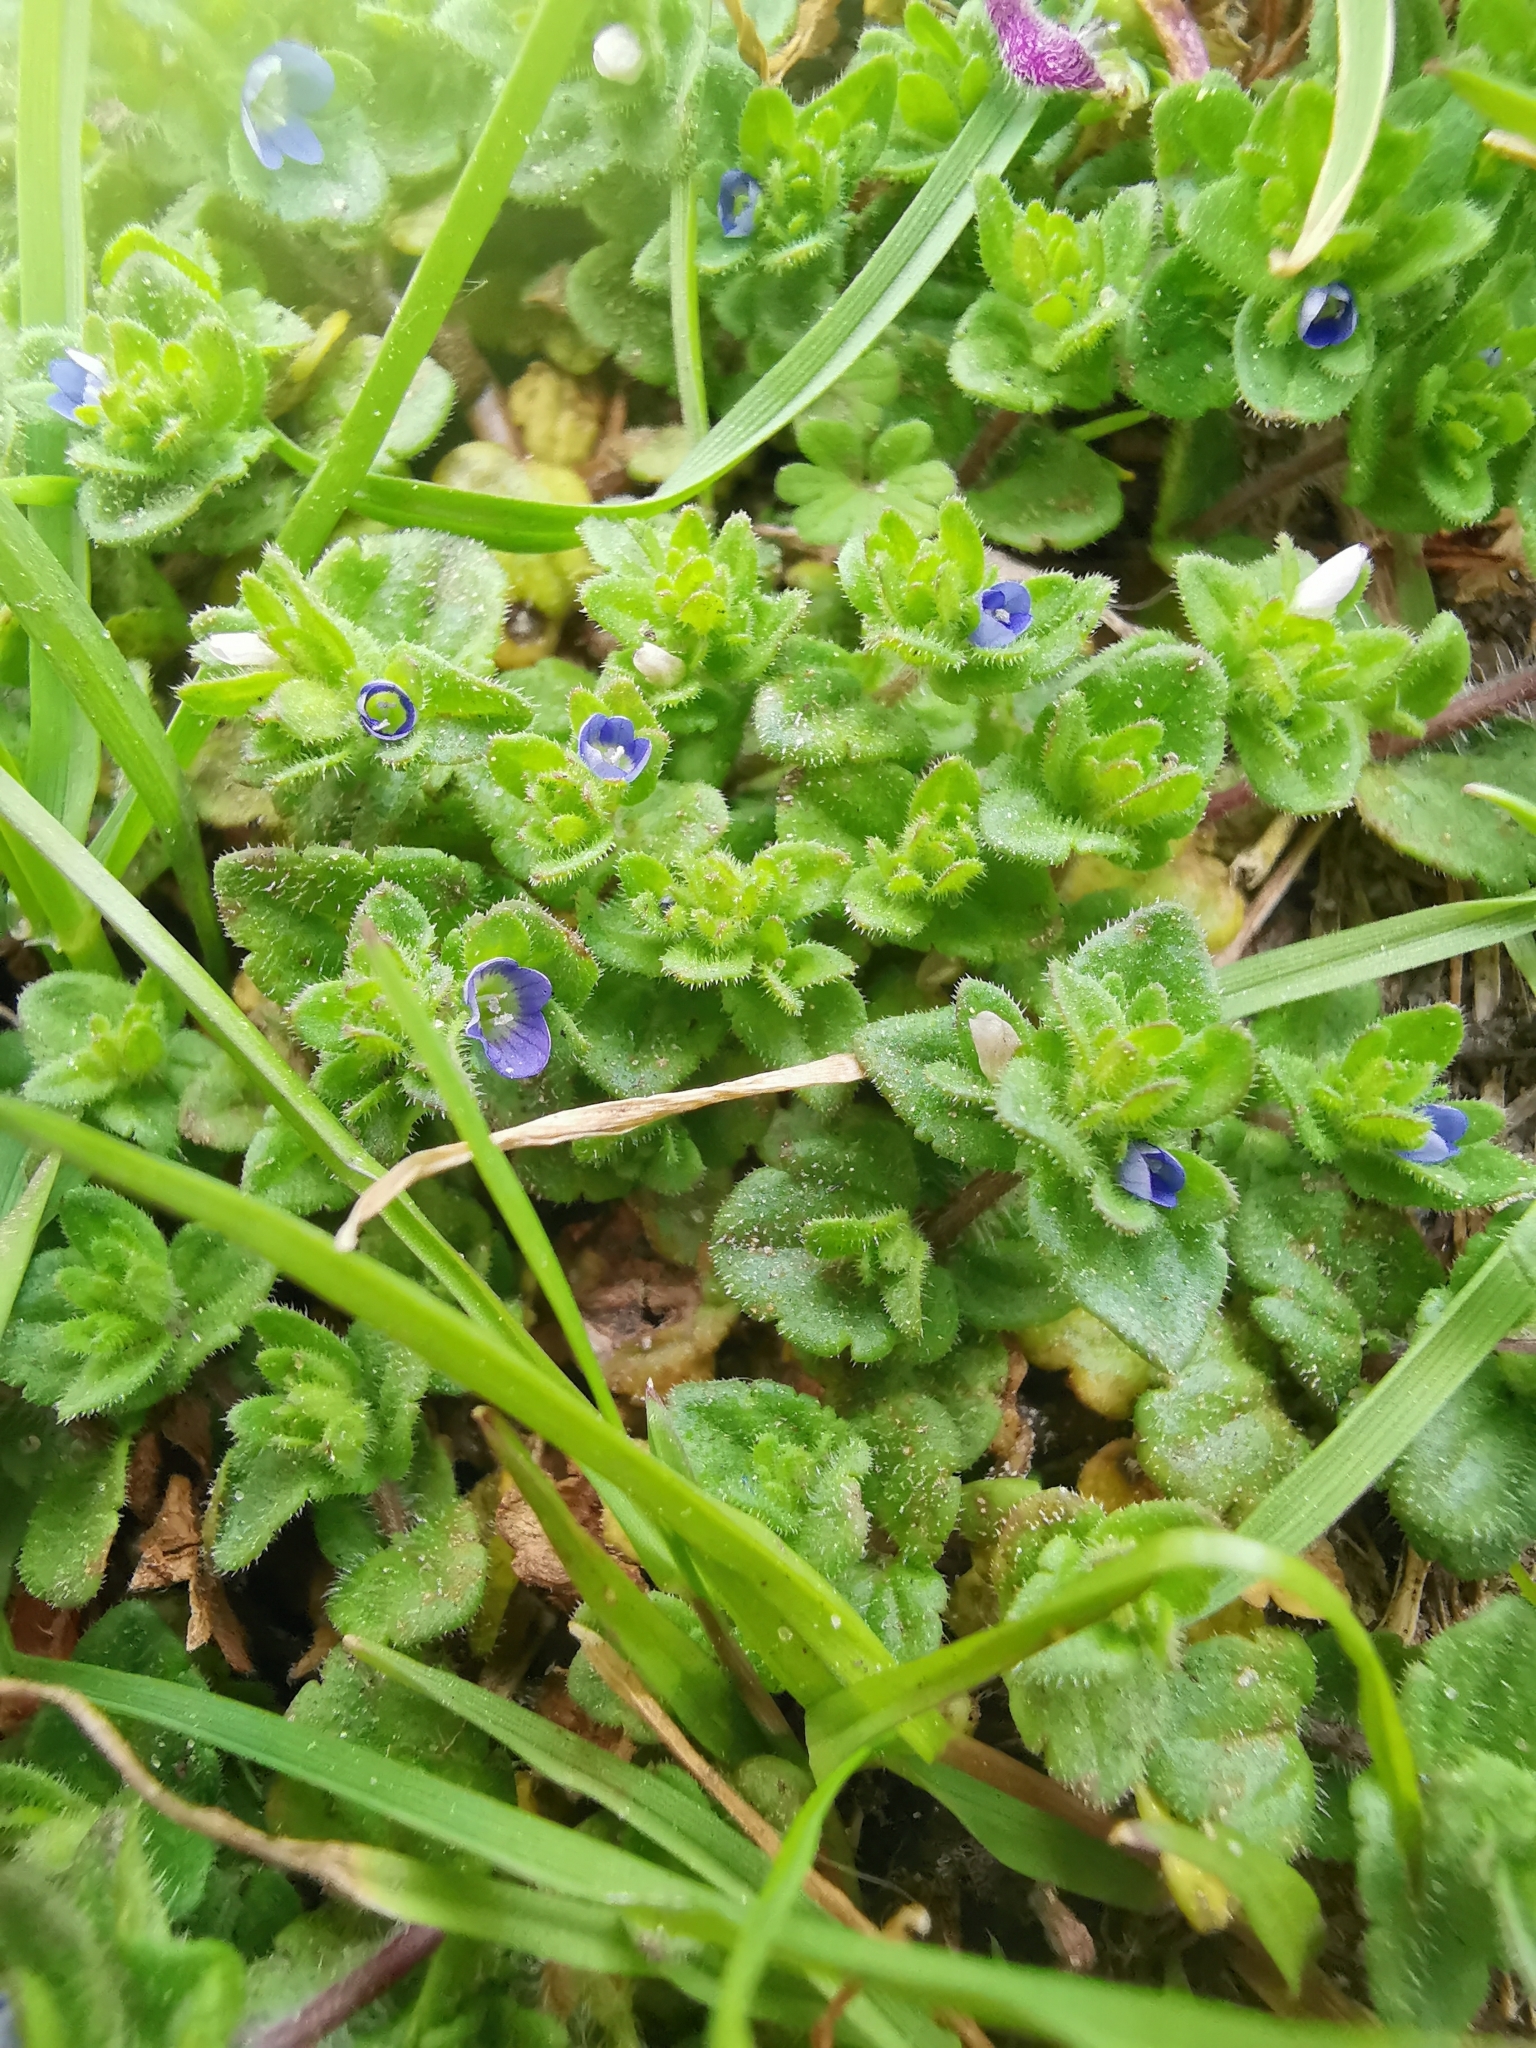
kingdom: Plantae
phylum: Tracheophyta
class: Magnoliopsida
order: Lamiales
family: Plantaginaceae
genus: Veronica
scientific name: Veronica arvensis
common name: Corn speedwell
